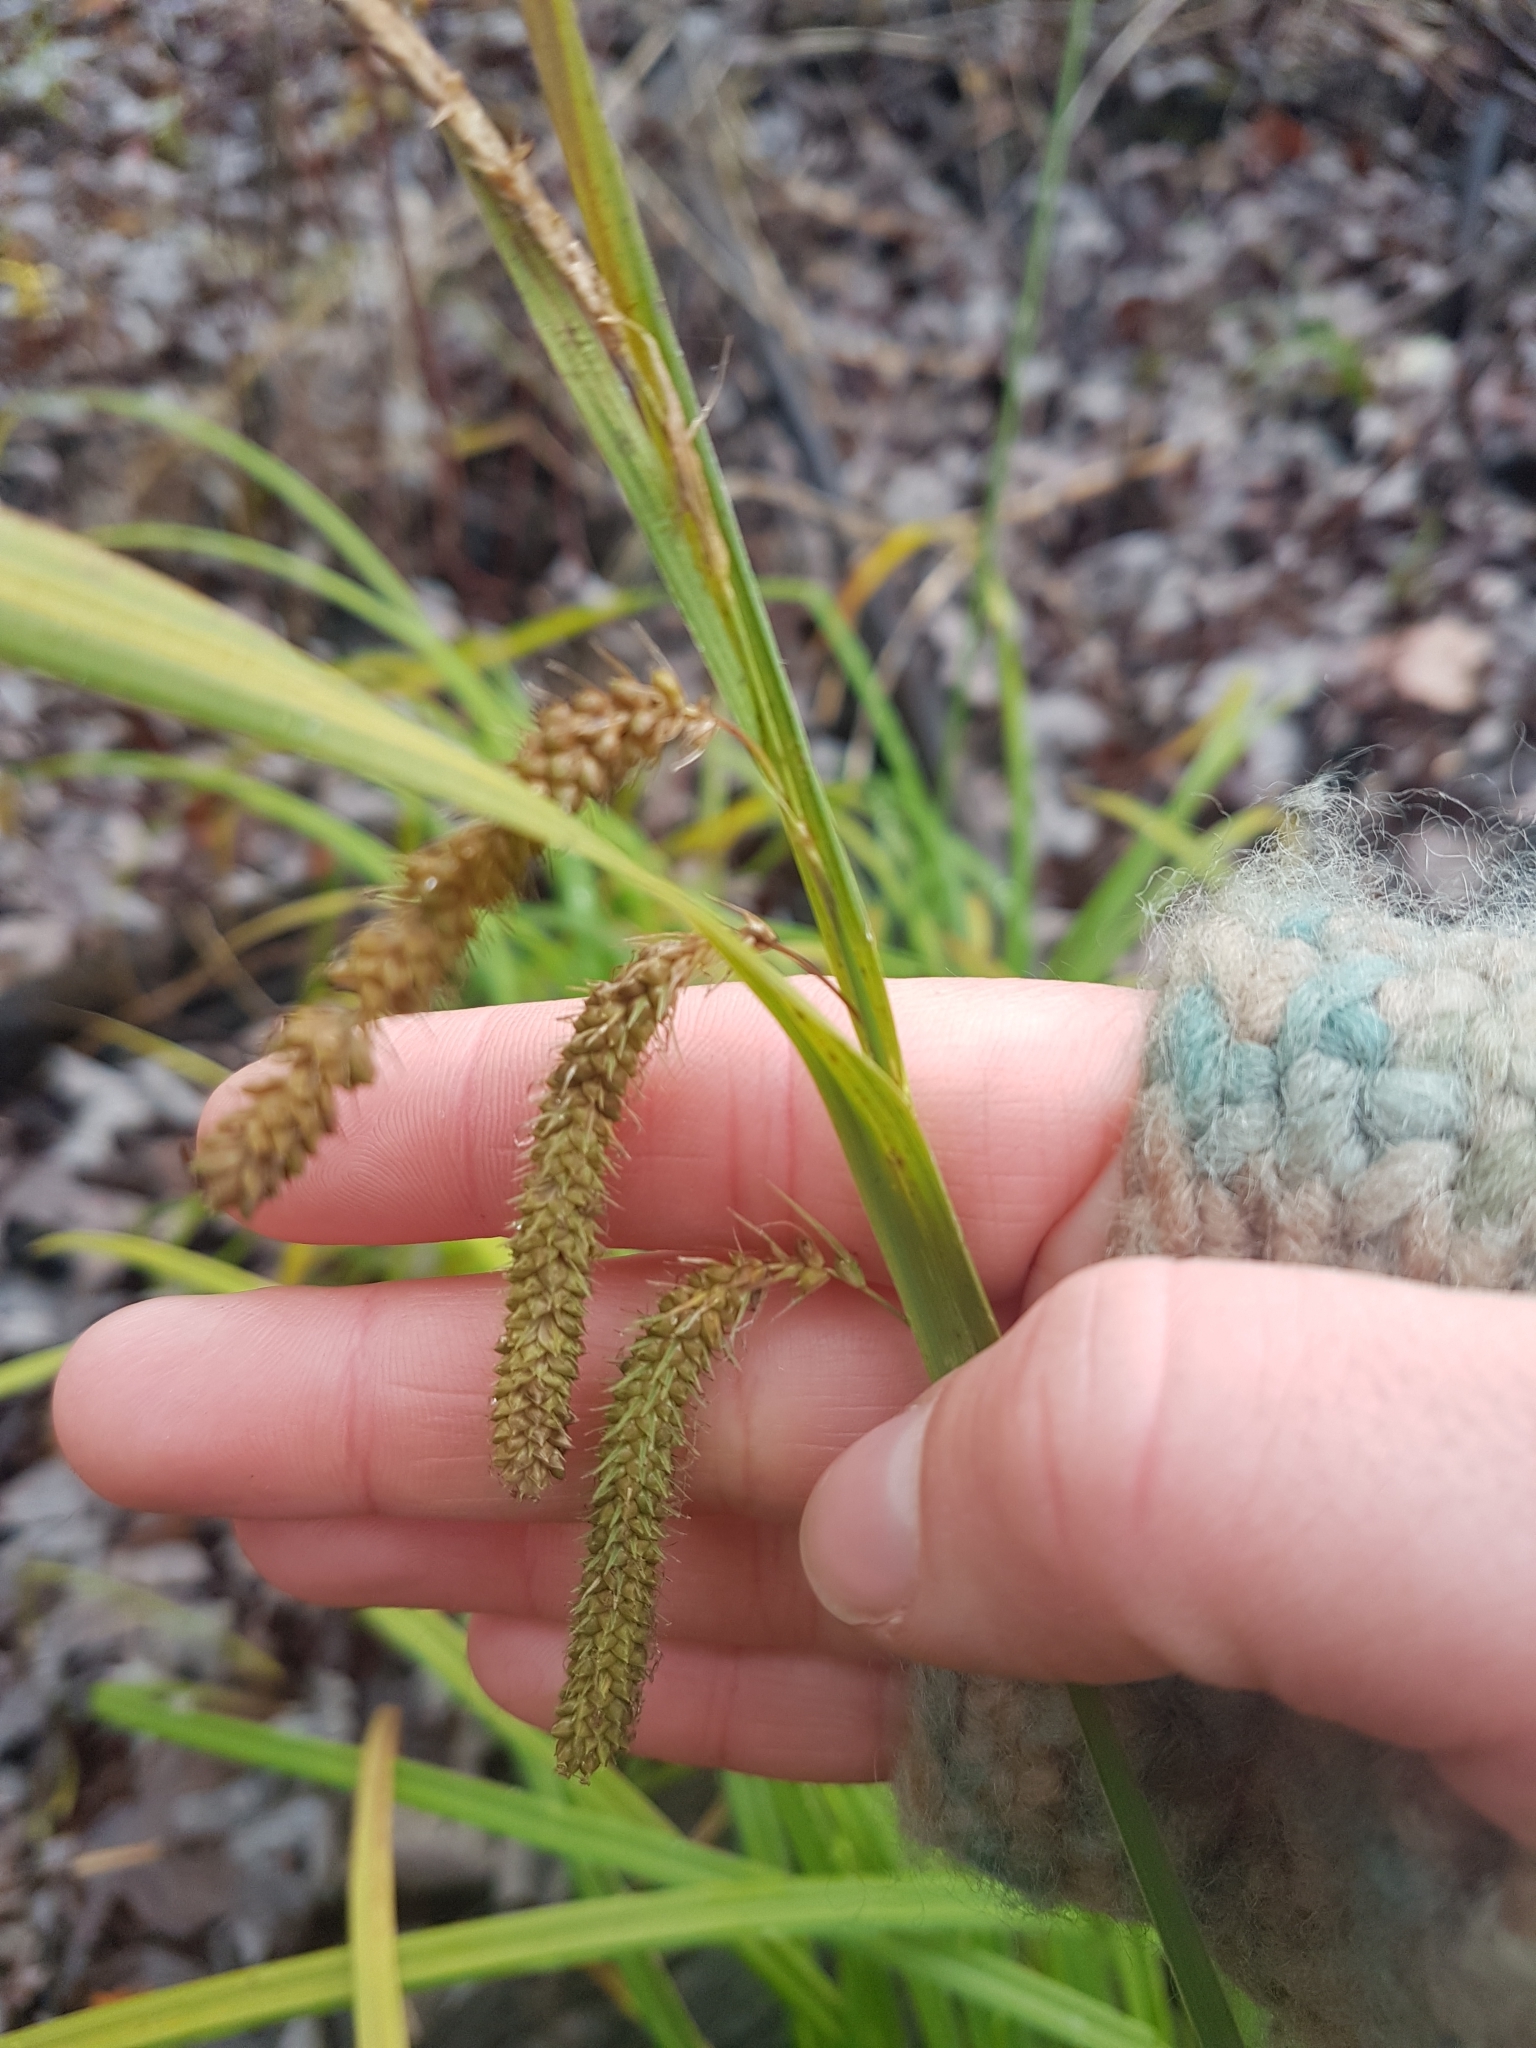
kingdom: Plantae
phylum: Tracheophyta
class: Liliopsida
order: Poales
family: Cyperaceae
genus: Carex
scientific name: Carex gynandra
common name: Nodding sedge
